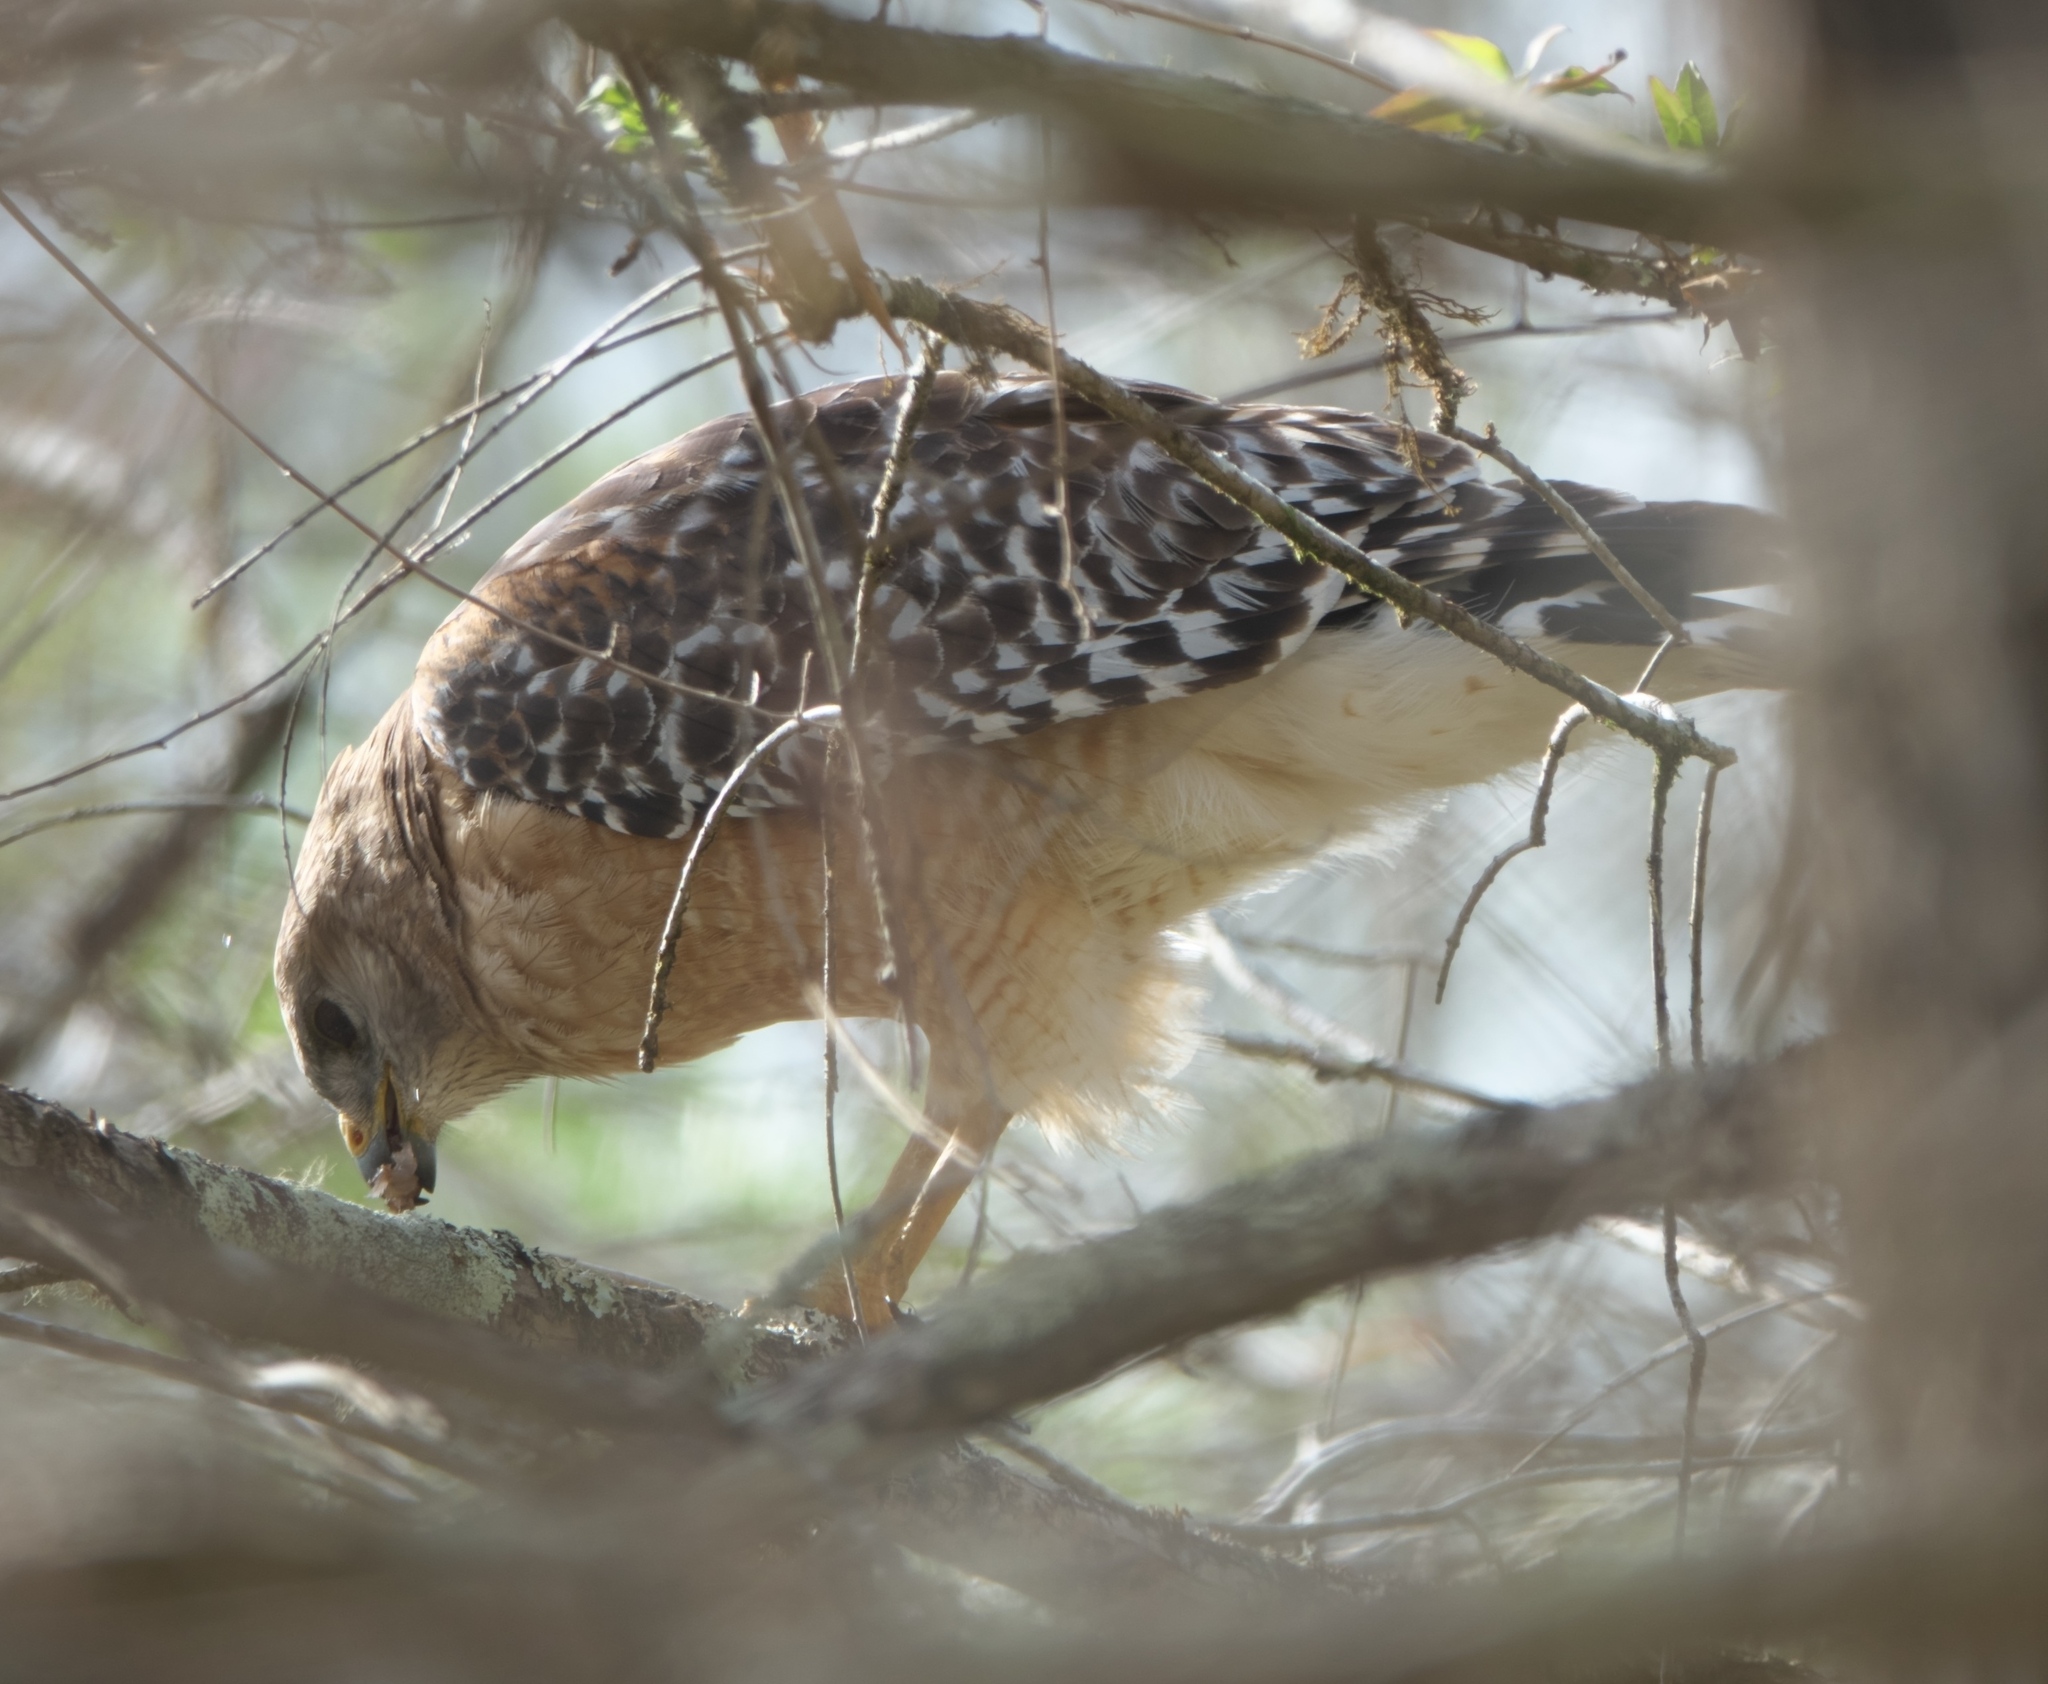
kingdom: Animalia
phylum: Chordata
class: Aves
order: Accipitriformes
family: Accipitridae
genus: Buteo
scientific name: Buteo lineatus
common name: Red-shouldered hawk
